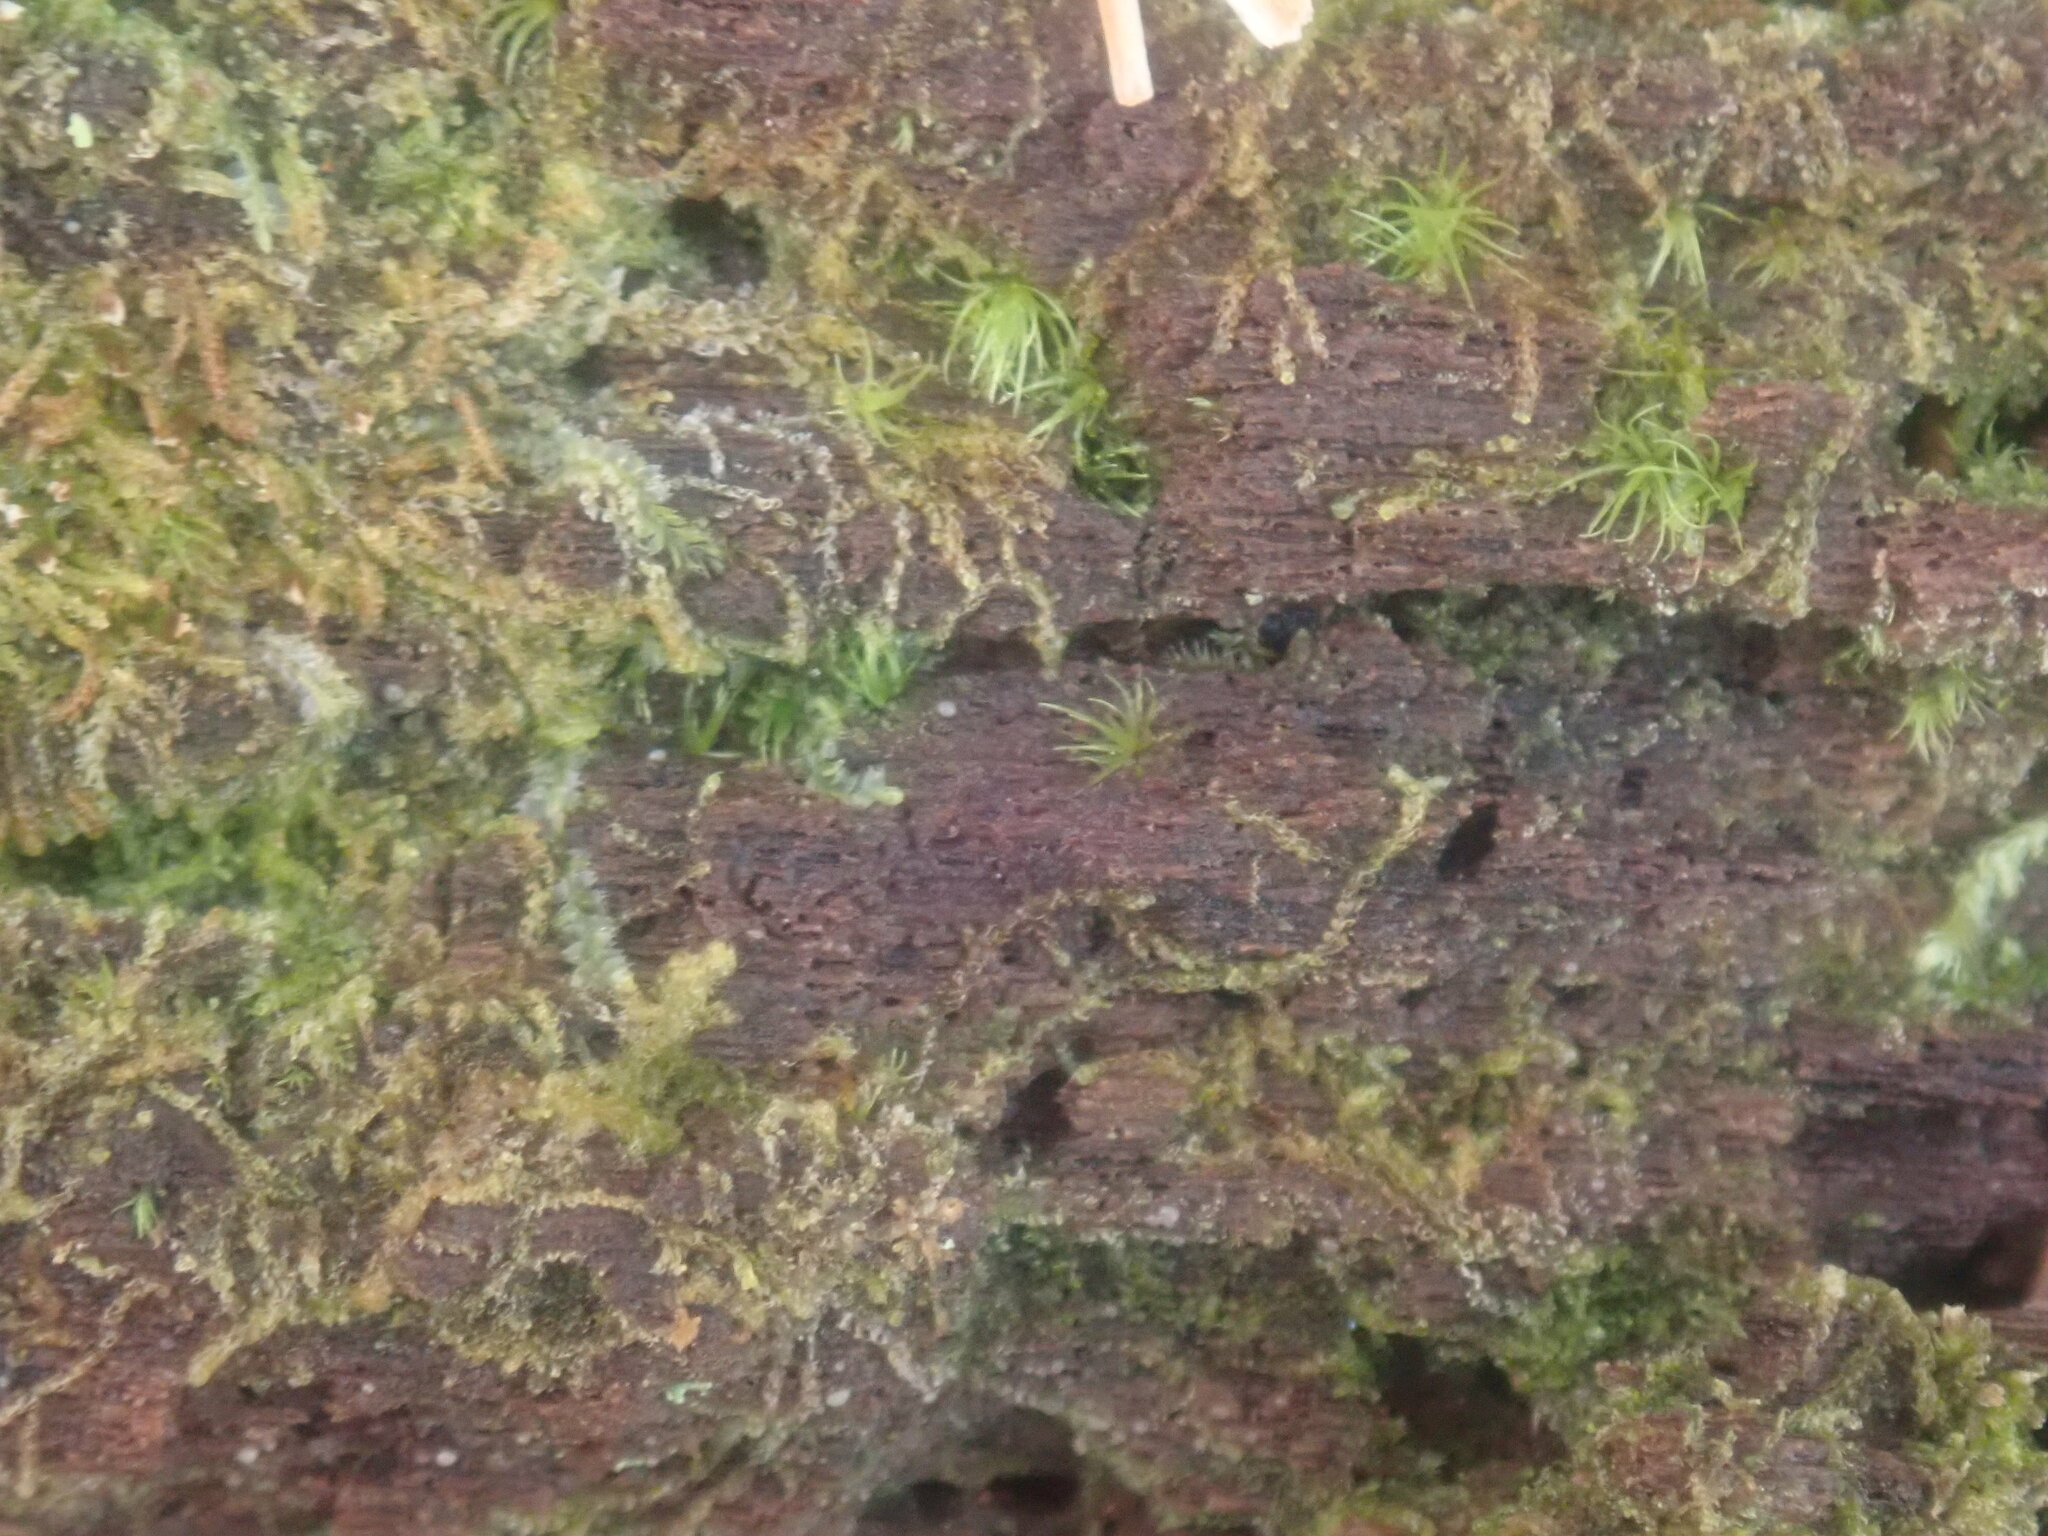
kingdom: Plantae
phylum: Marchantiophyta
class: Jungermanniopsida
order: Jungermanniales
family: Cephaloziaceae
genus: Nowellia
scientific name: Nowellia curvifolia
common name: Wood rustwort
